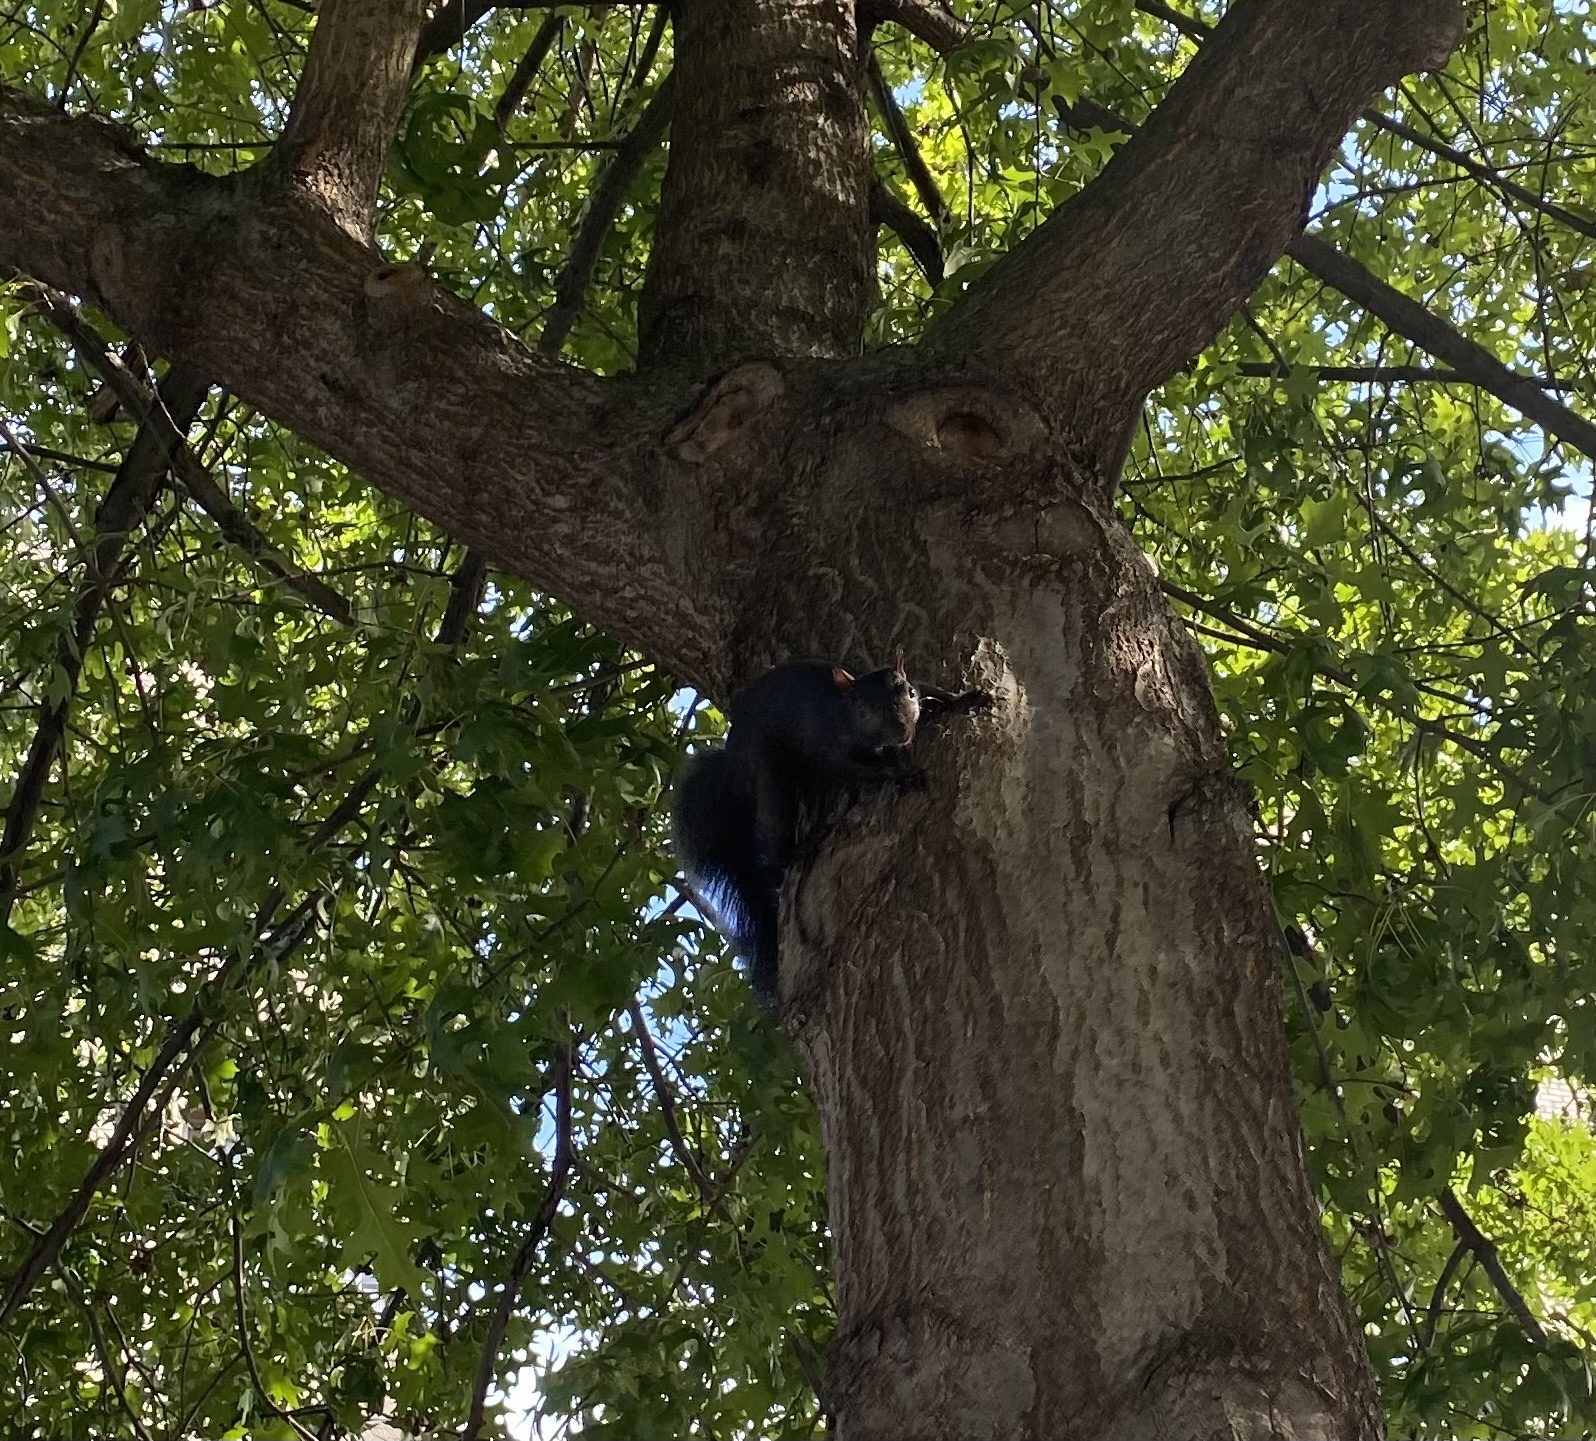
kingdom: Animalia
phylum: Chordata
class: Mammalia
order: Rodentia
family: Sciuridae
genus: Sciurus
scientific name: Sciurus carolinensis
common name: Eastern gray squirrel
